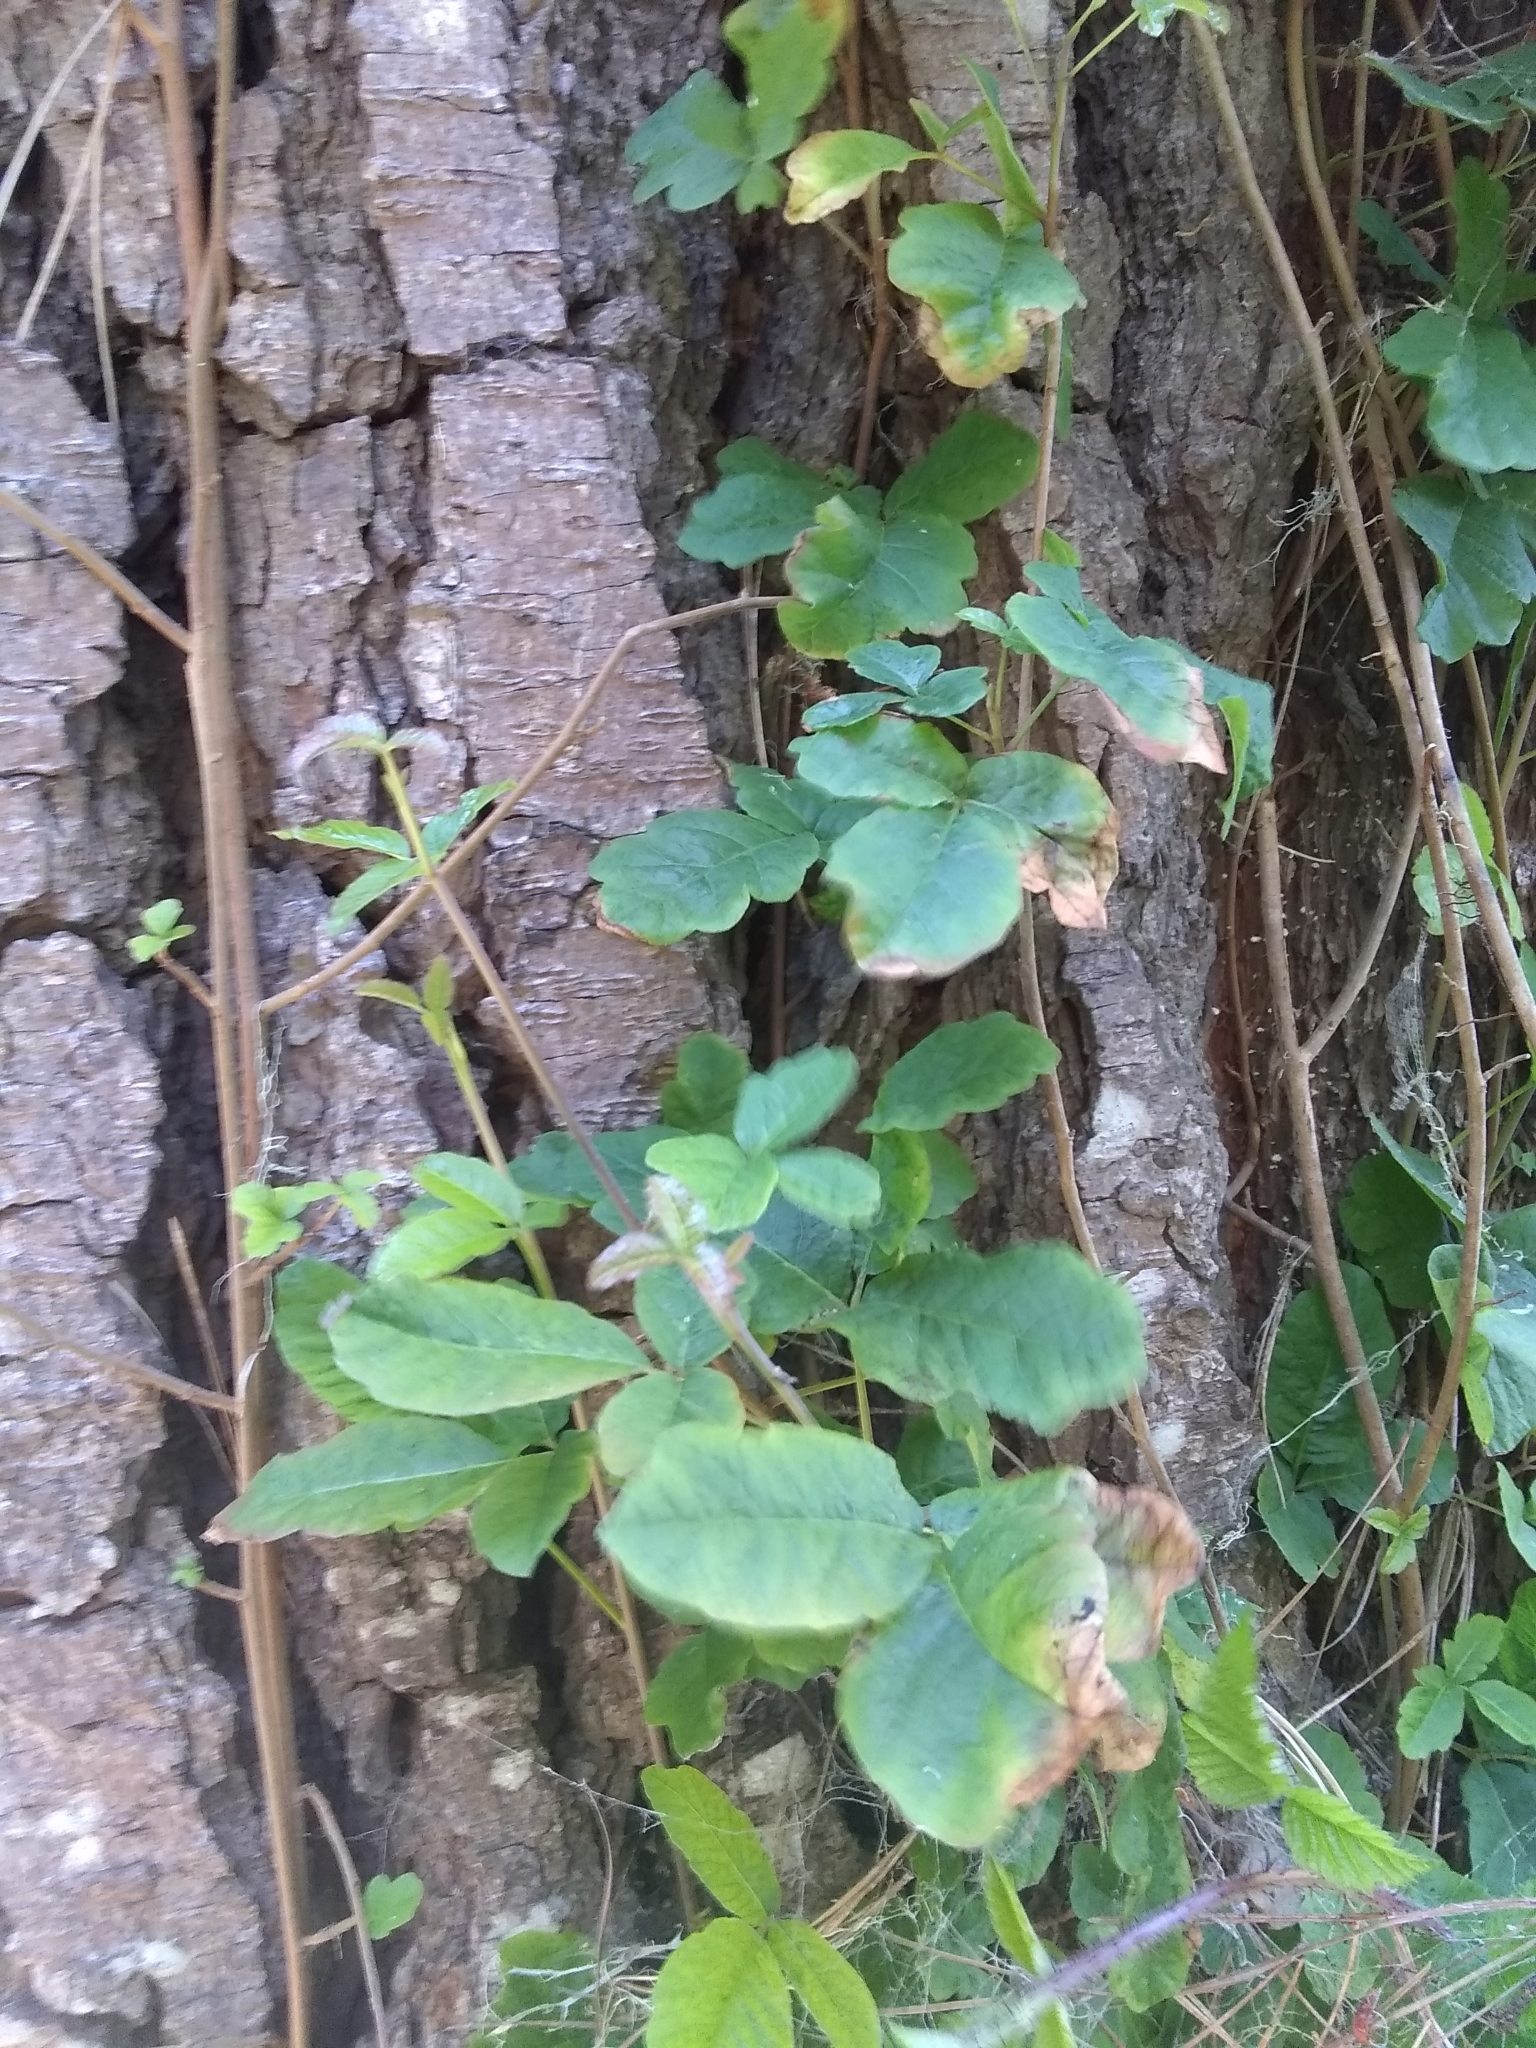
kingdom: Plantae
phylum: Tracheophyta
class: Magnoliopsida
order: Sapindales
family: Anacardiaceae
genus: Toxicodendron
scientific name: Toxicodendron diversilobum
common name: Pacific poison-oak
